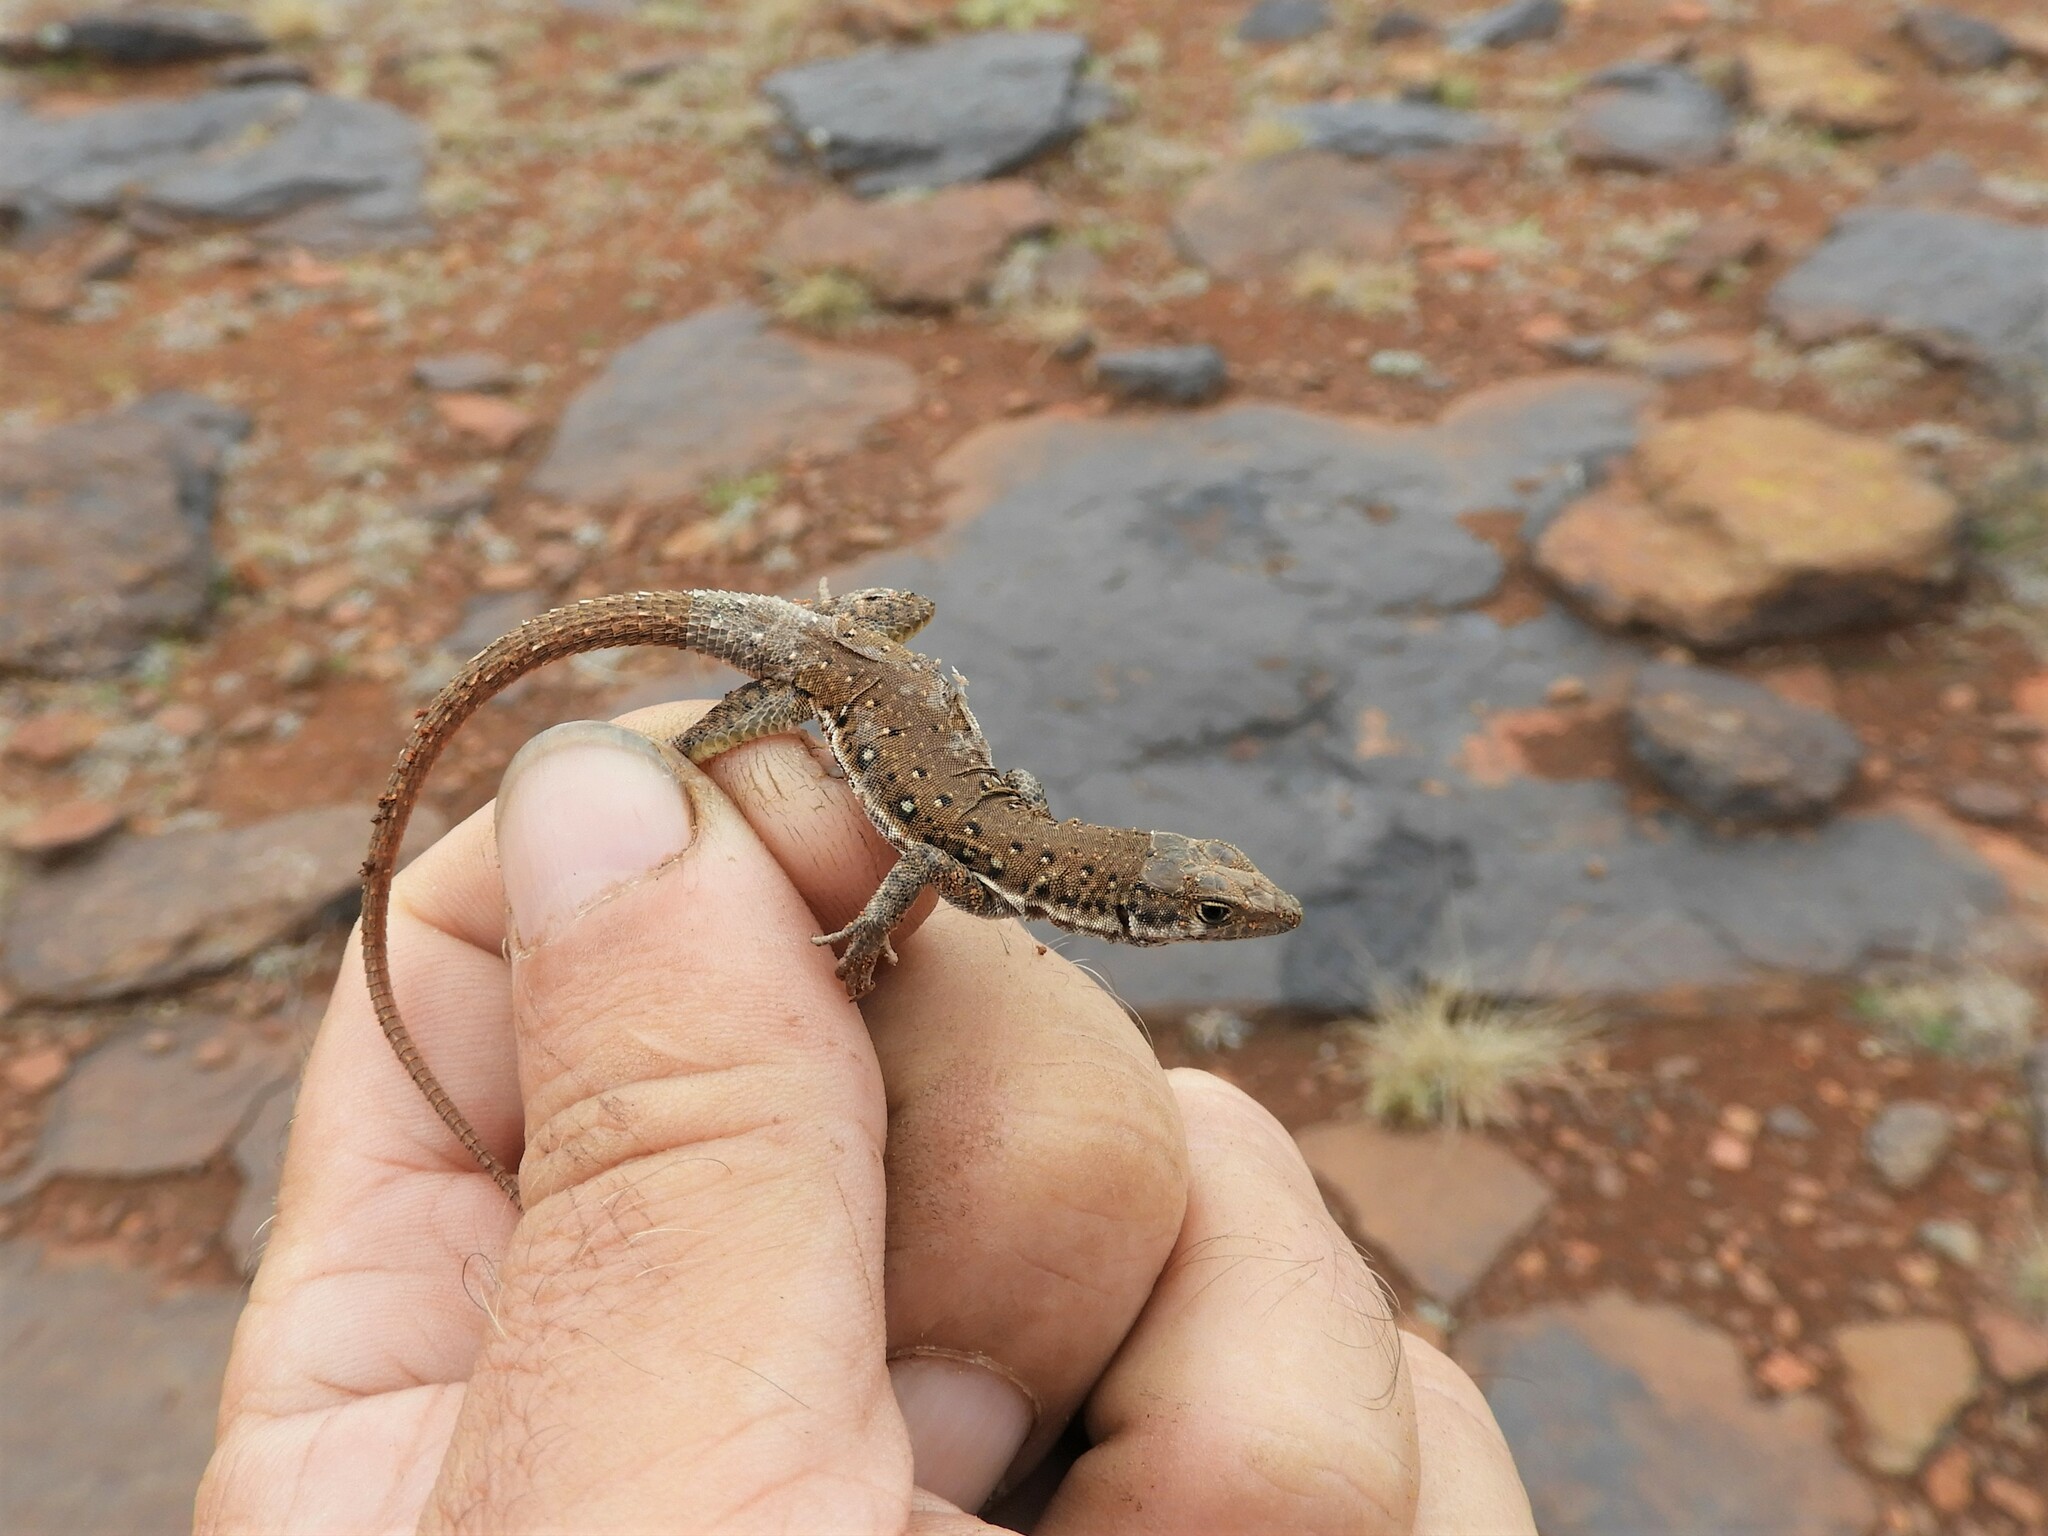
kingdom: Animalia
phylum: Chordata
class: Squamata
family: Lacertidae
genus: Pedioplanis
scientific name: Pedioplanis lineoocellata
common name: Spotted sand lizard
